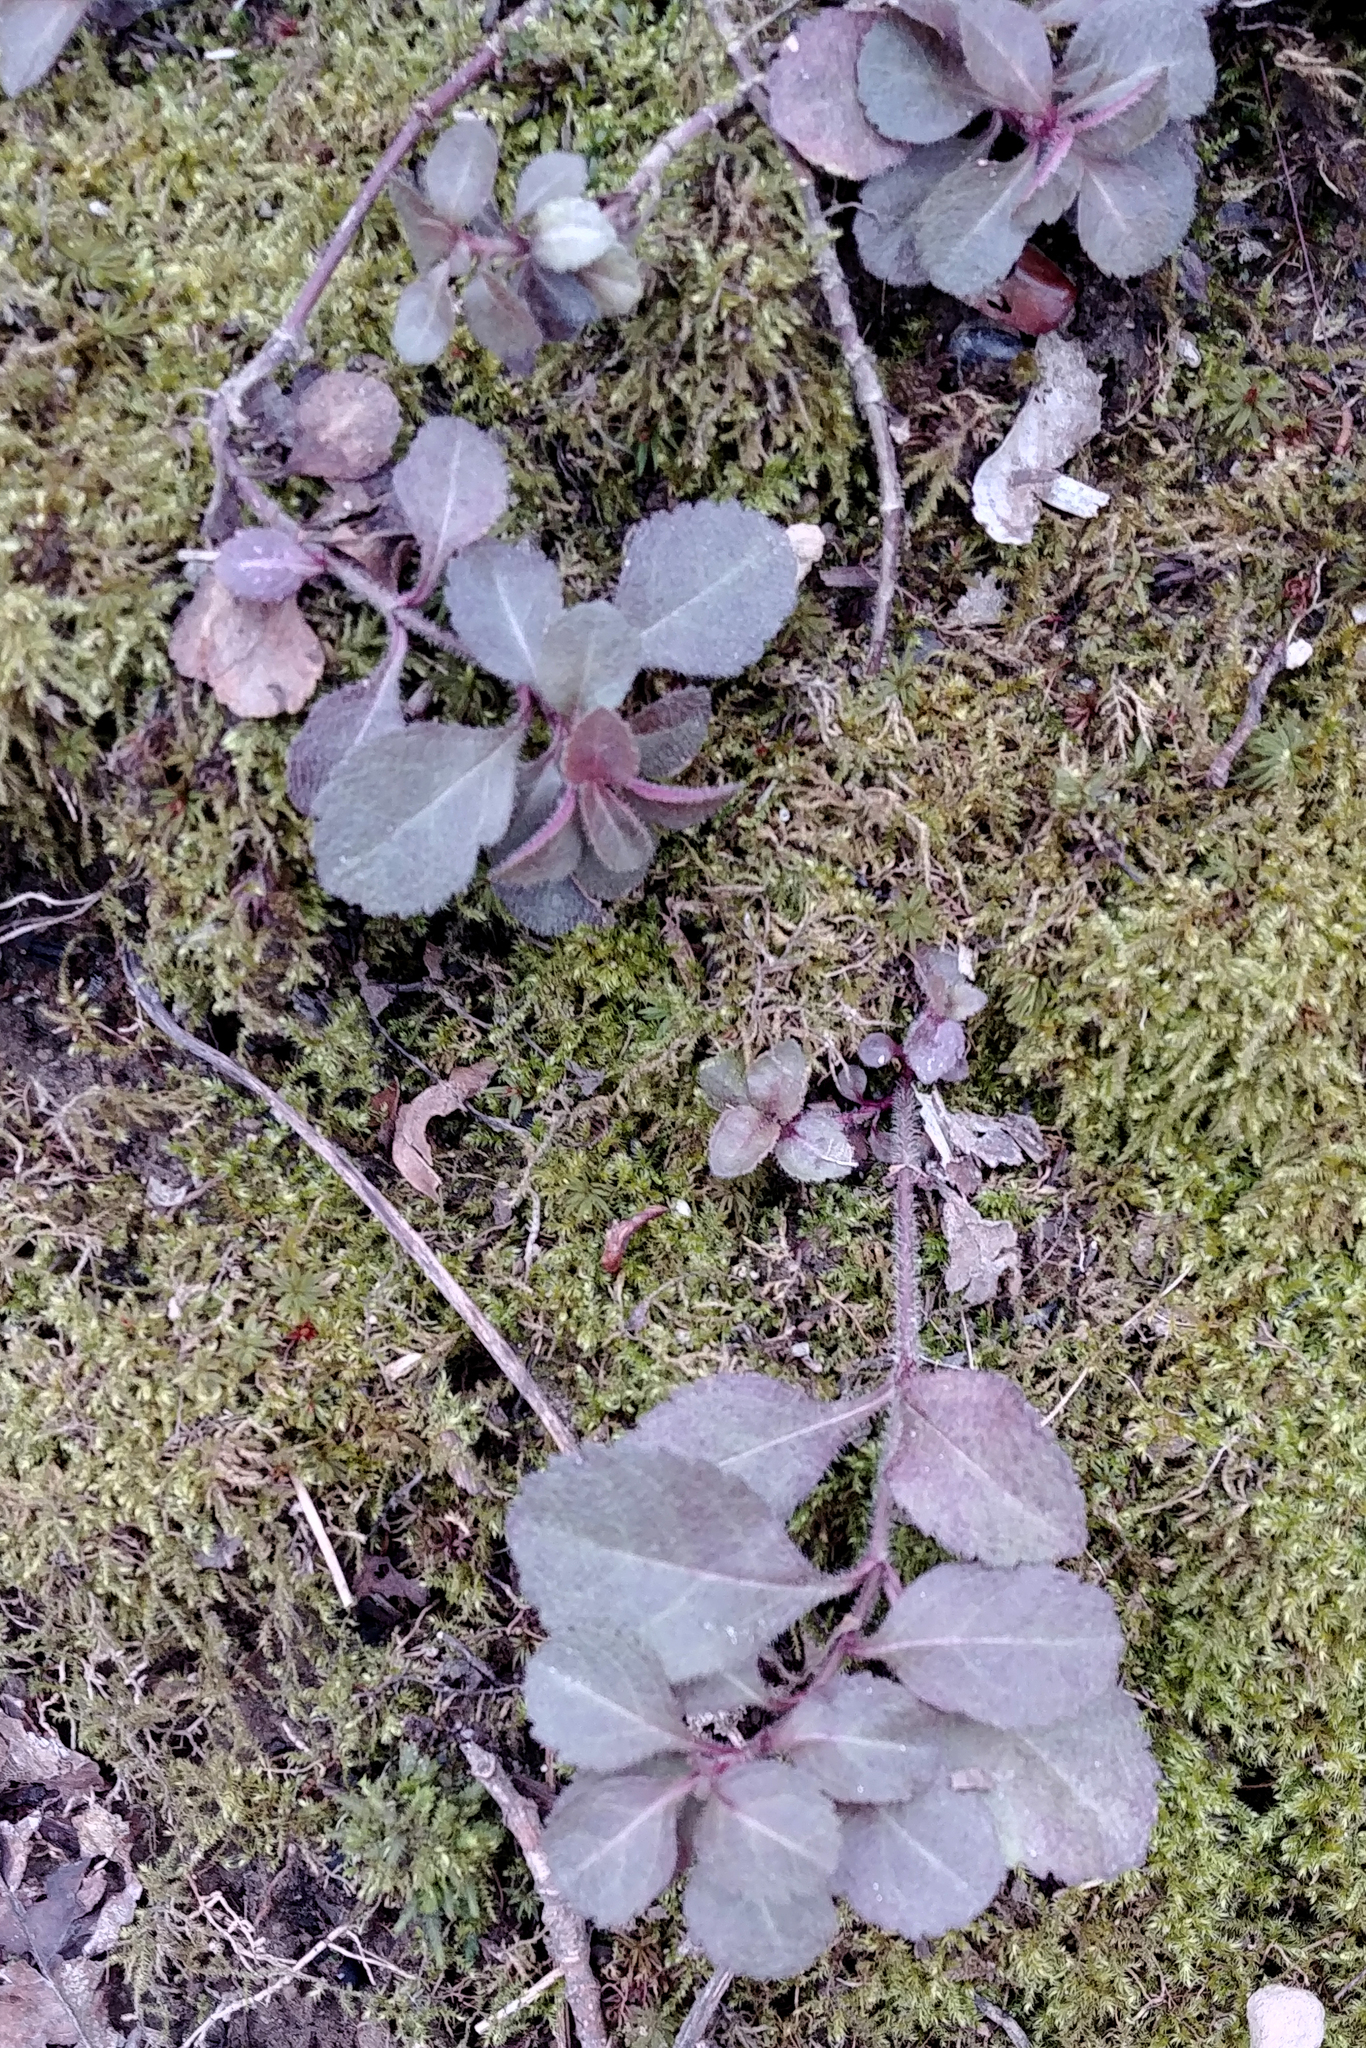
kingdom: Plantae
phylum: Tracheophyta
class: Magnoliopsida
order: Lamiales
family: Plantaginaceae
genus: Veronica
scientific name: Veronica officinalis
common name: Common speedwell
